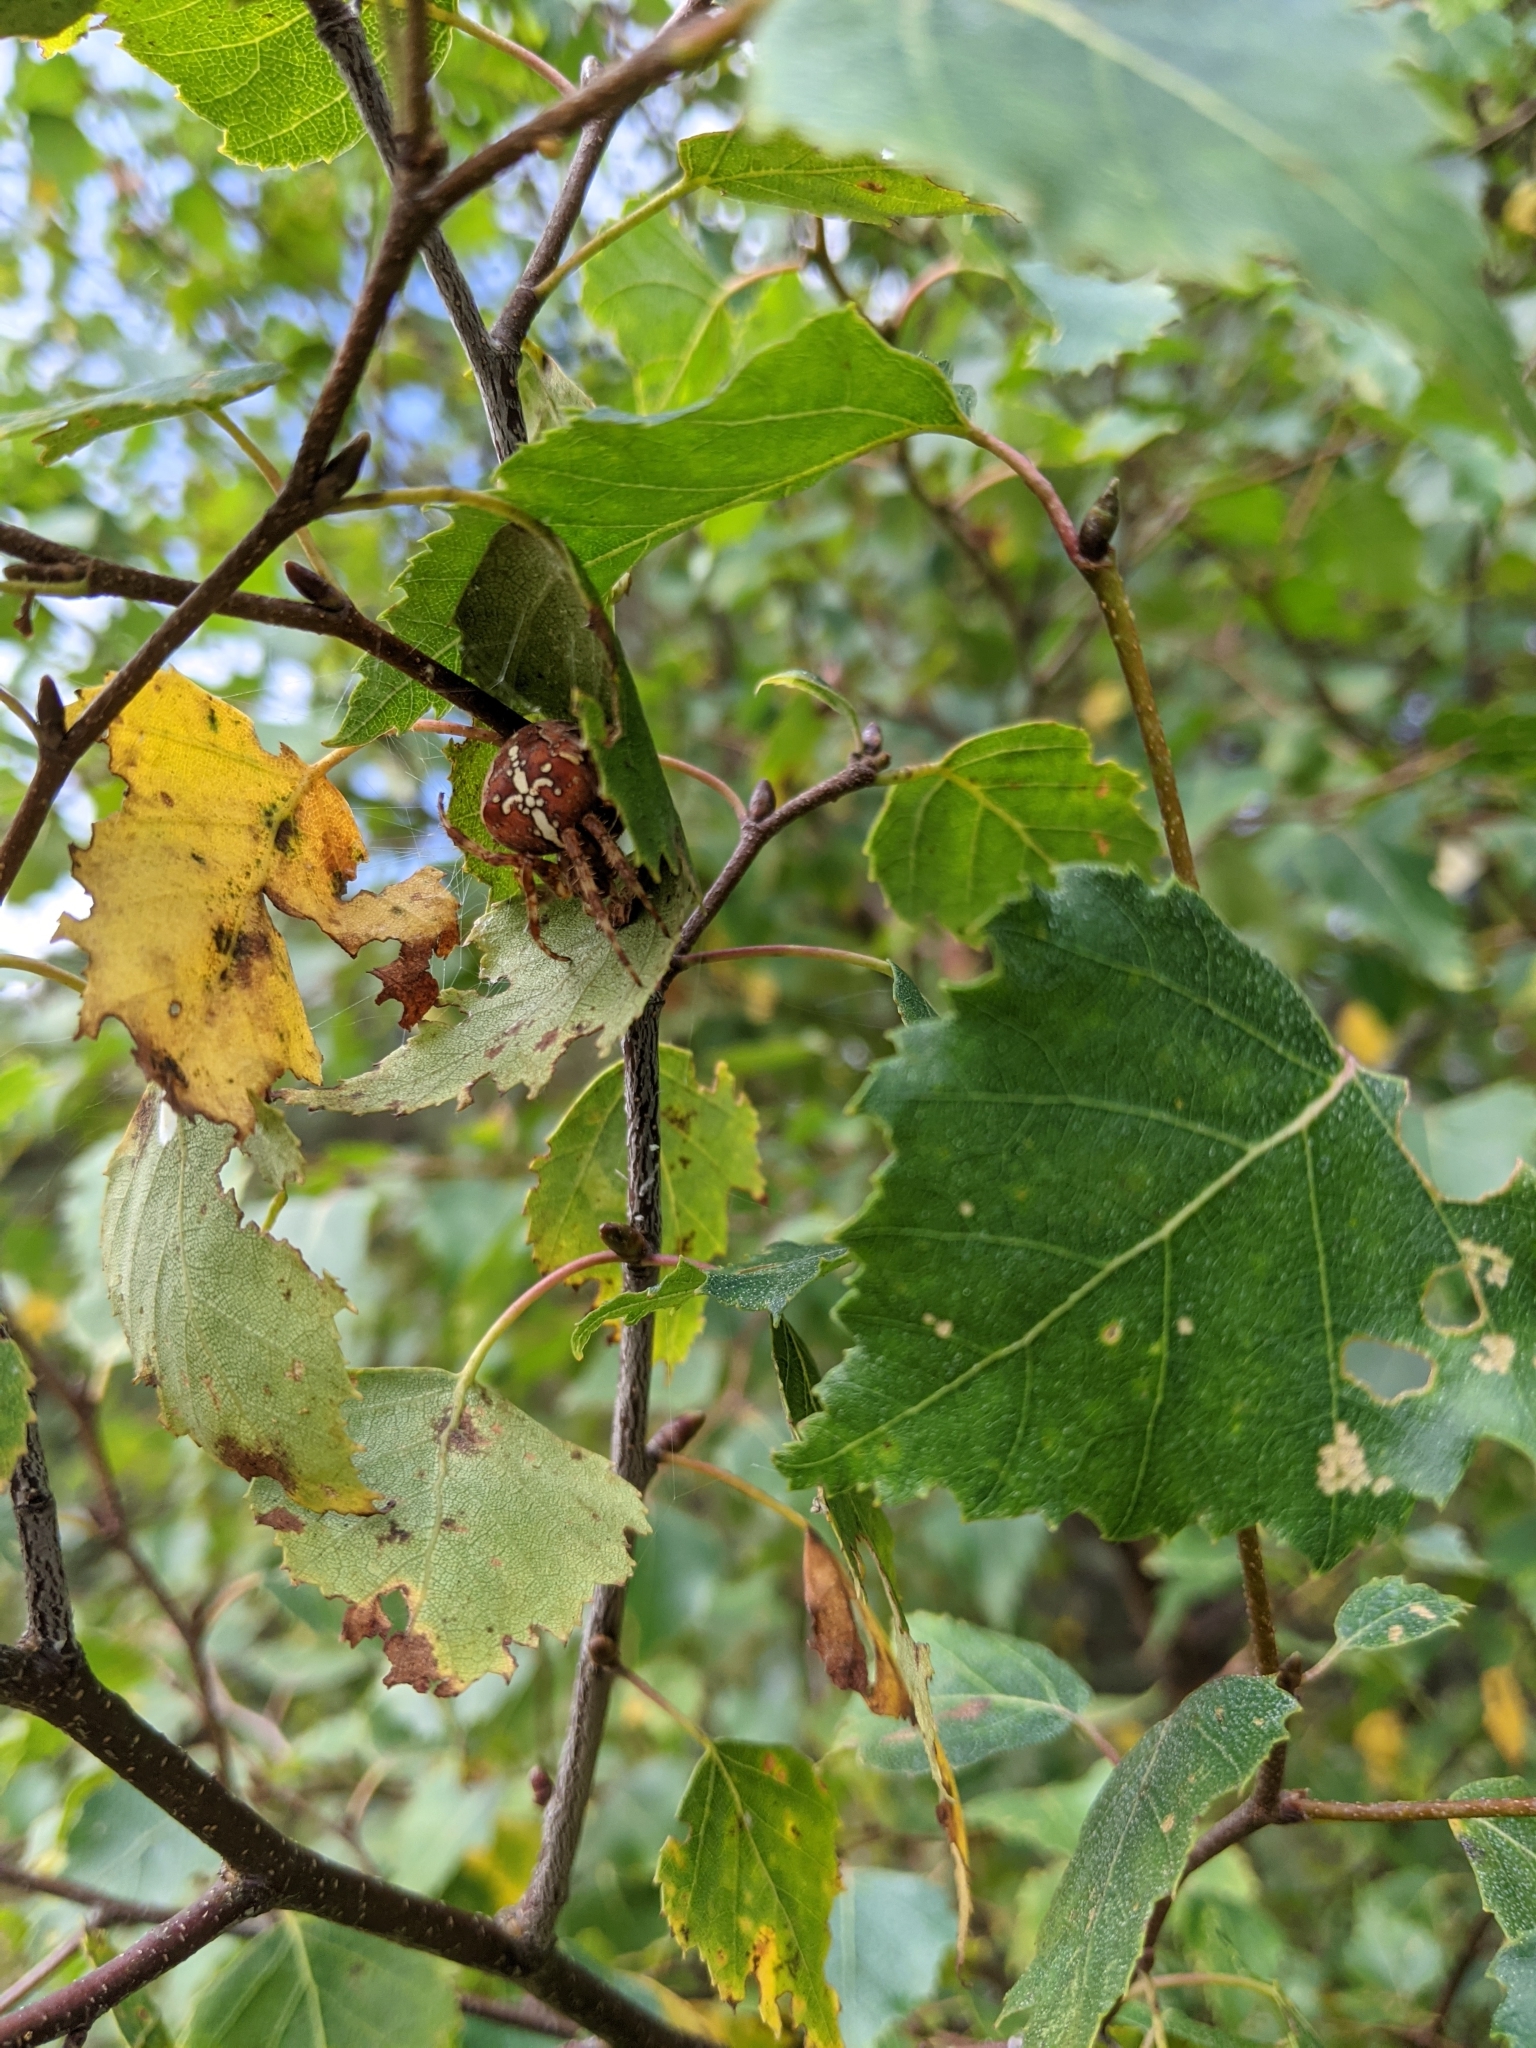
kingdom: Animalia
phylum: Arthropoda
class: Arachnida
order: Araneae
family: Araneidae
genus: Araneus
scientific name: Araneus diadematus
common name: Cross orbweaver
